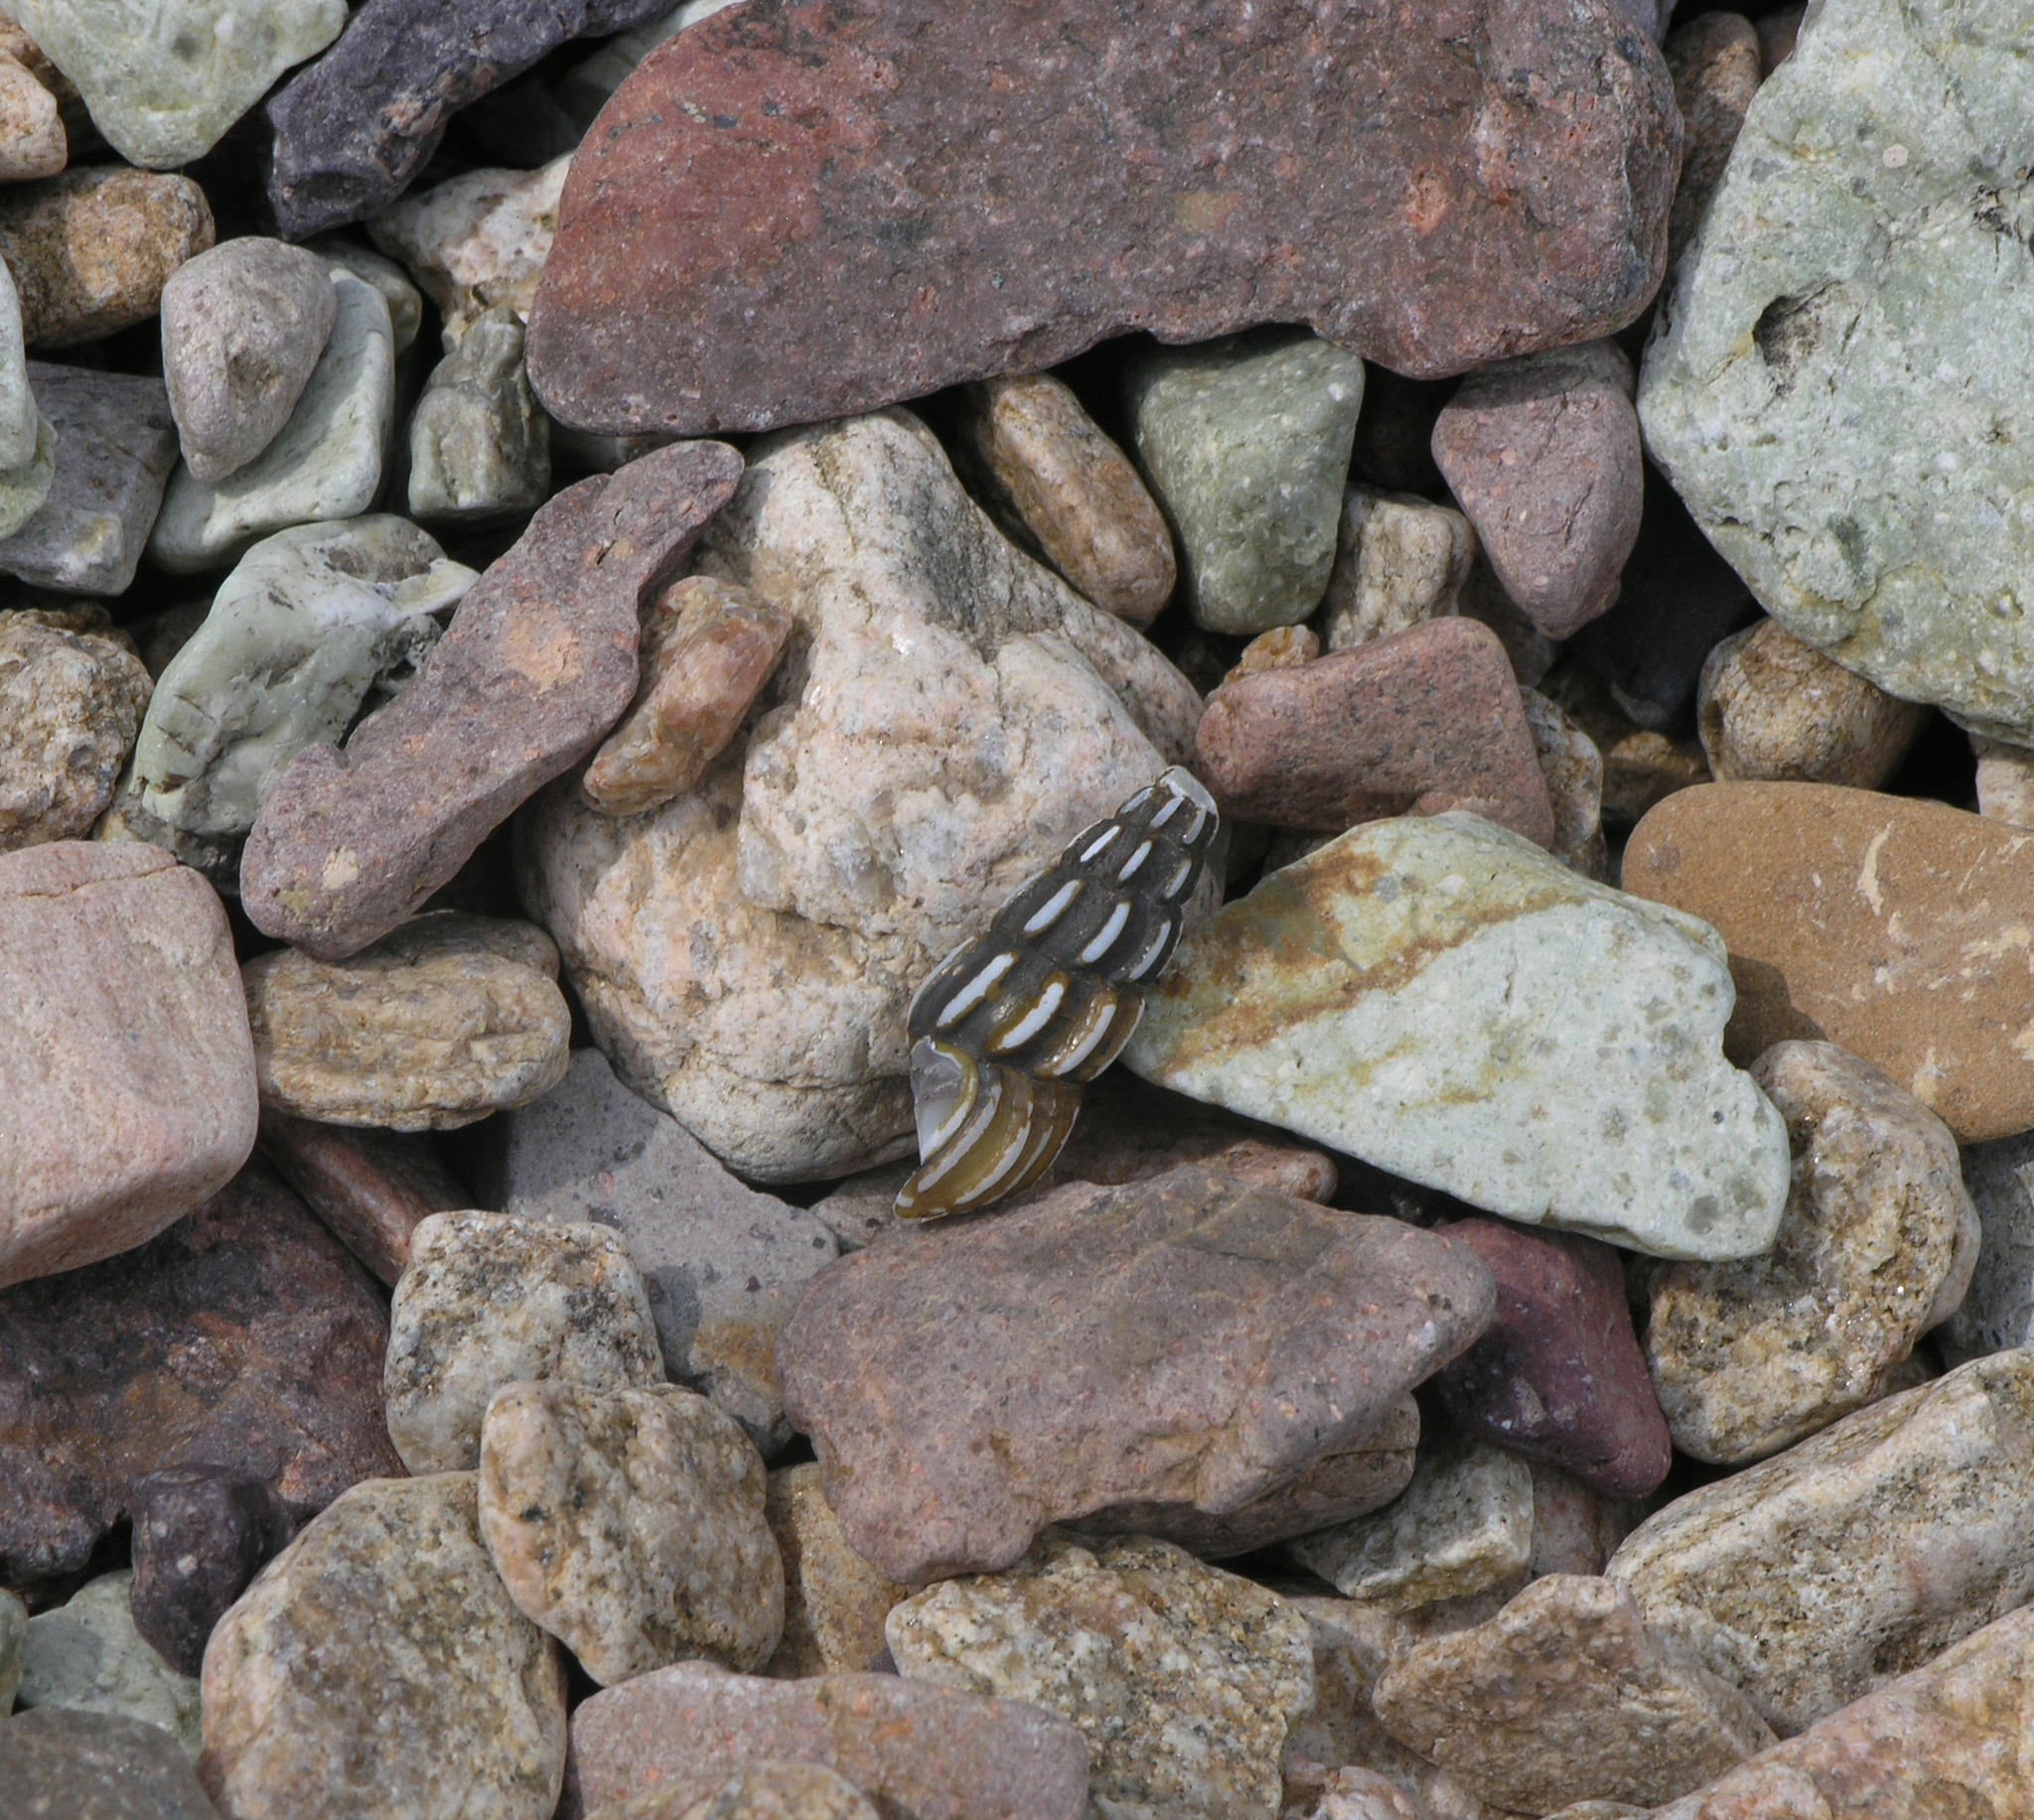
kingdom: Animalia
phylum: Mollusca
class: Gastropoda
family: Semisulcospiridae
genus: Koreoleptoxis
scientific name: Koreoleptoxis amurensis
